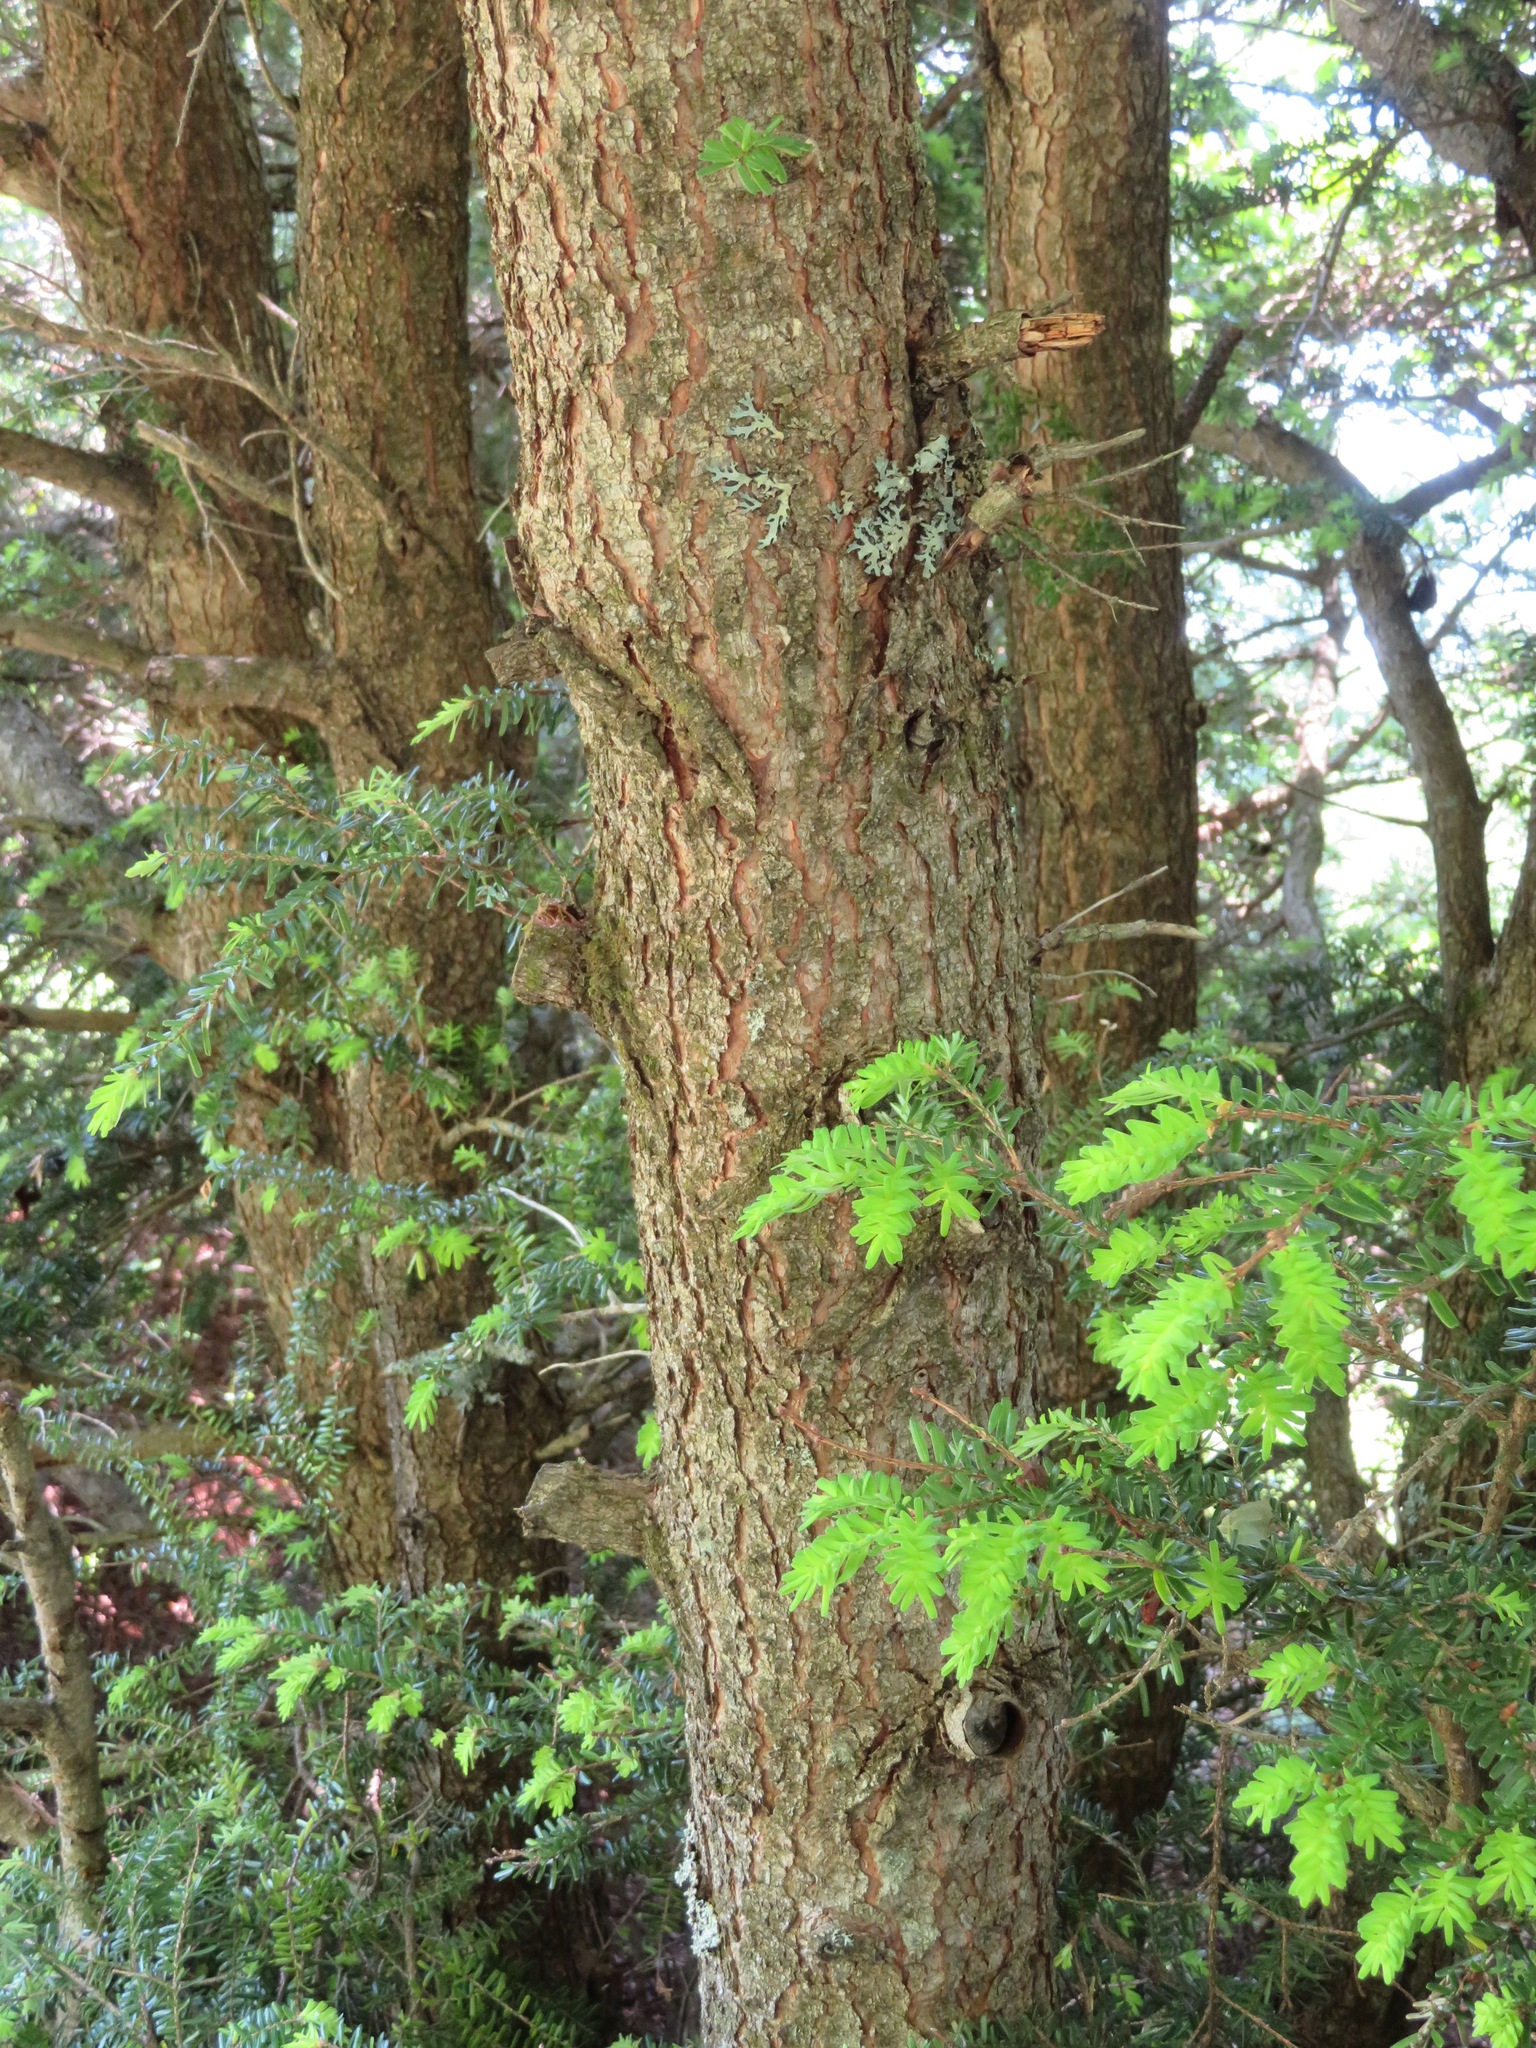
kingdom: Plantae
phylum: Tracheophyta
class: Pinopsida
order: Pinales
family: Pinaceae
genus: Tsuga
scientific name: Tsuga diversifolia
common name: Northern japanese hemlock
